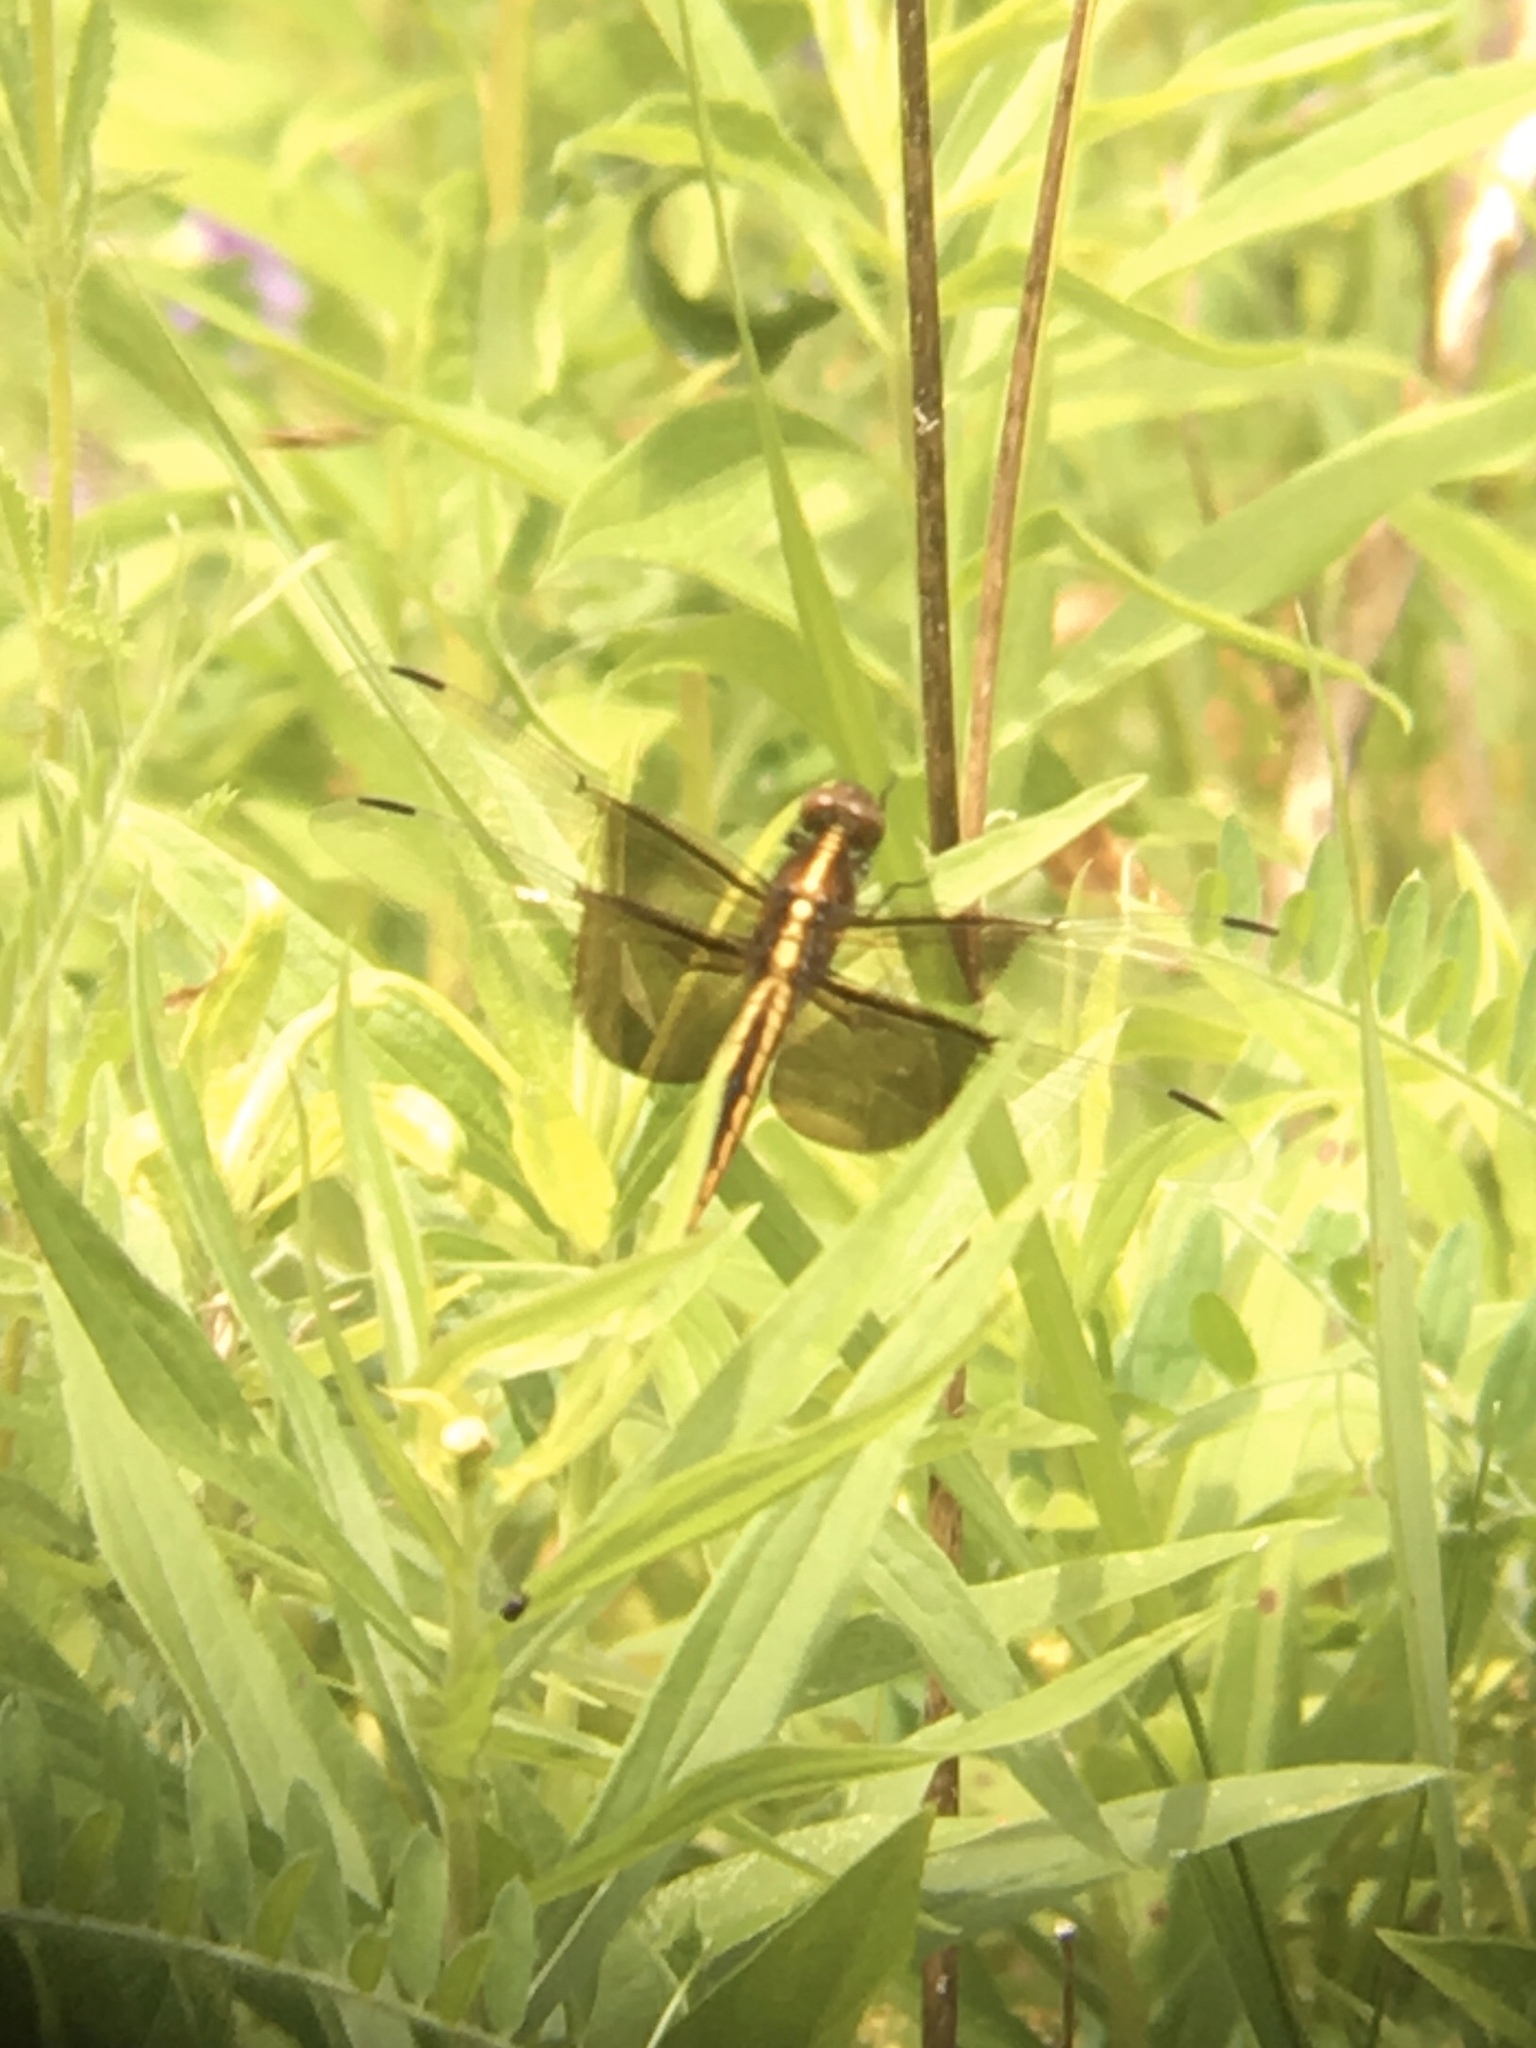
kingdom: Animalia
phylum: Arthropoda
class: Insecta
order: Odonata
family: Libellulidae
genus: Libellula
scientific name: Libellula luctuosa
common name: Widow skimmer
